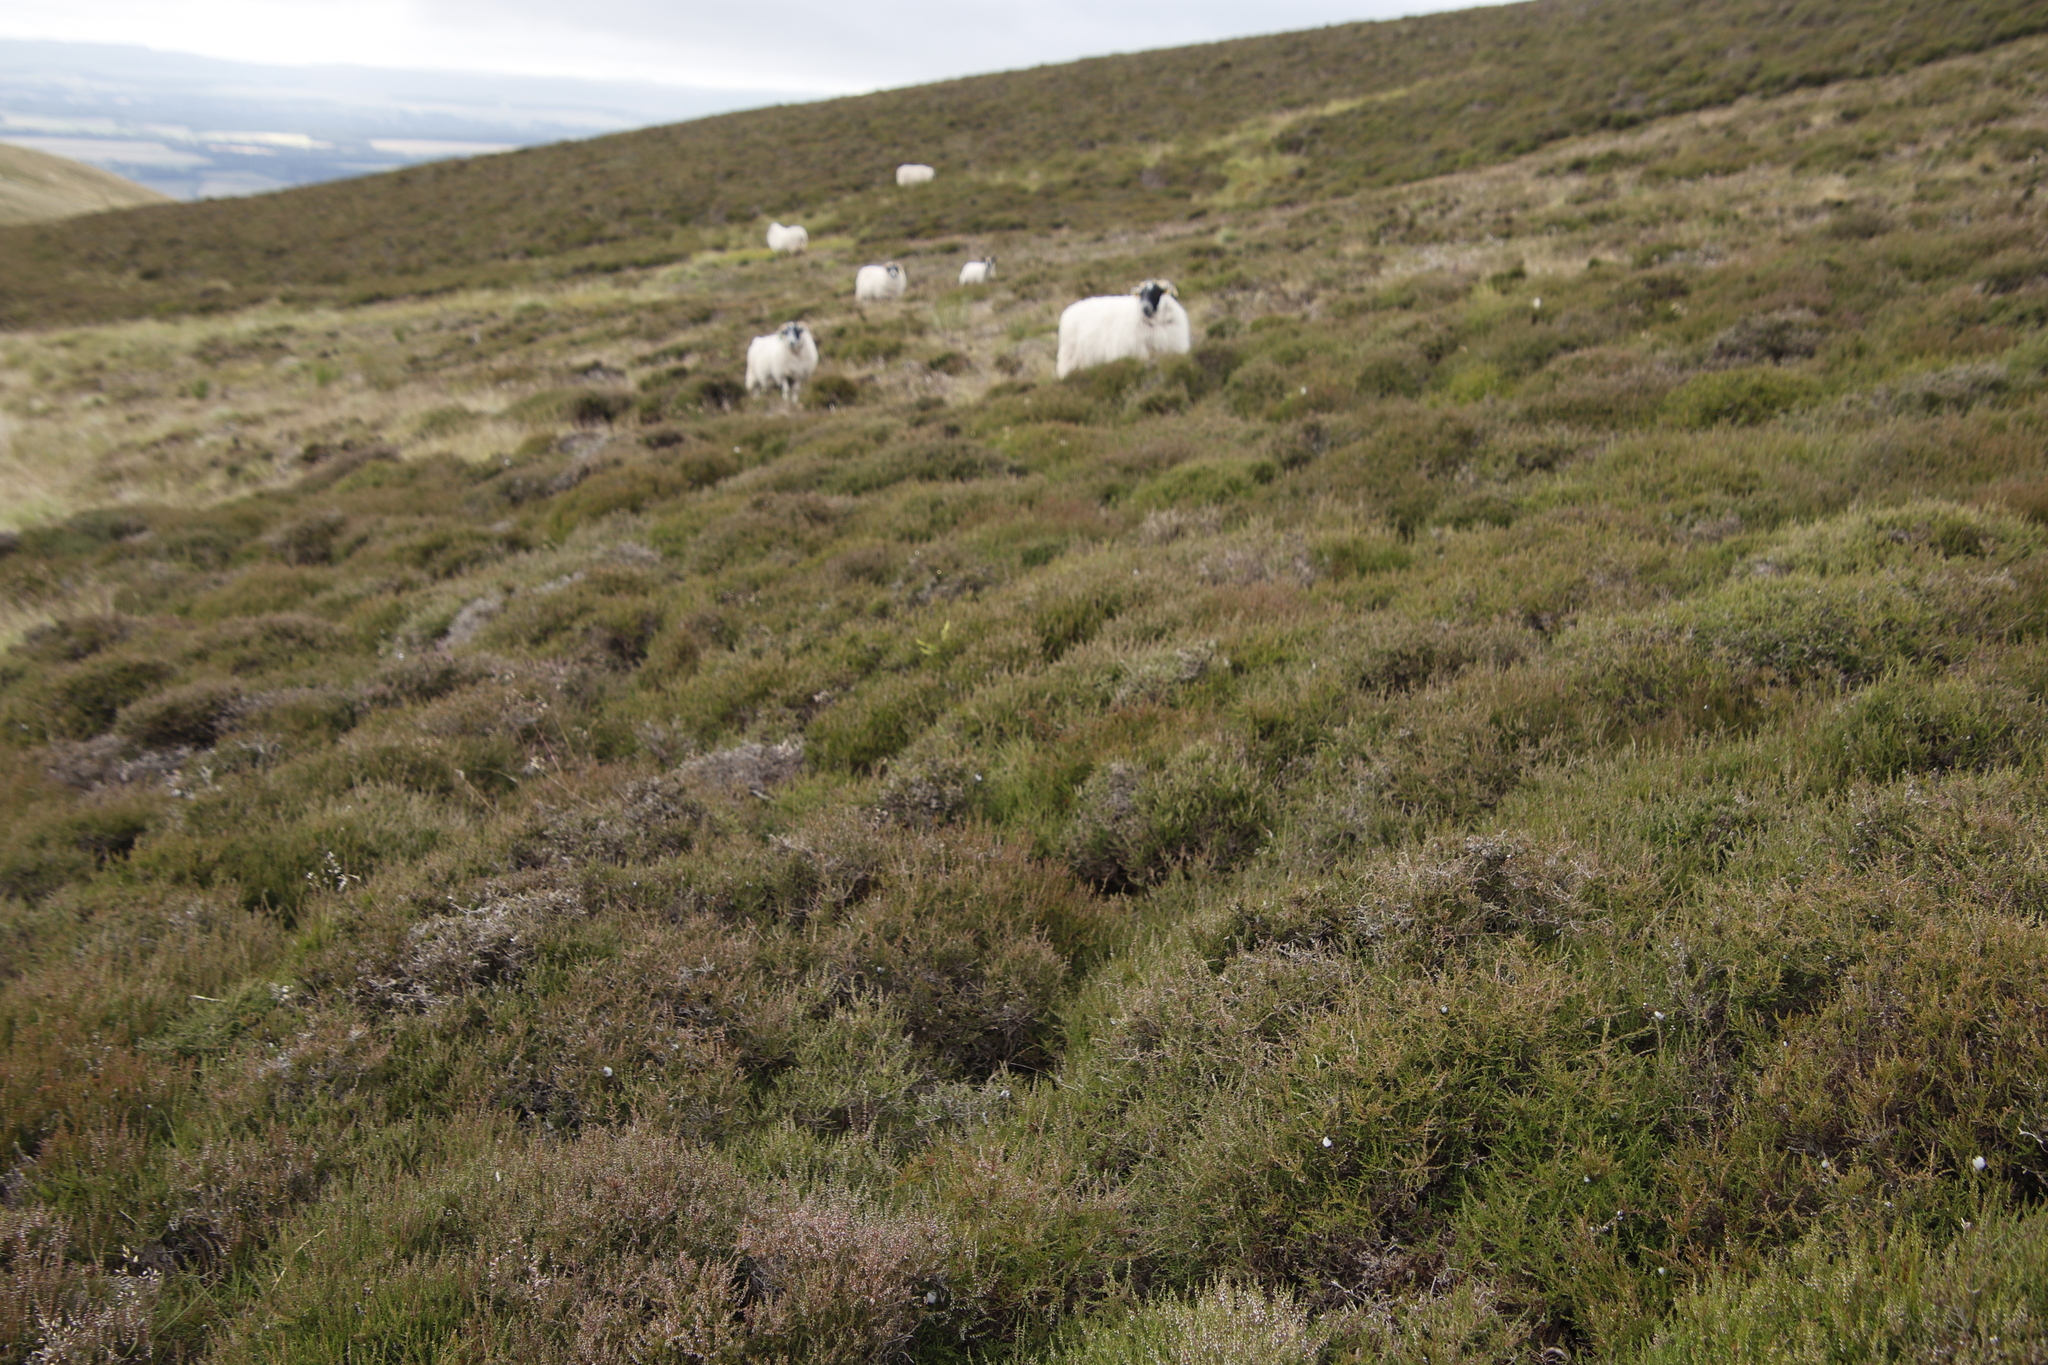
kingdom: Plantae
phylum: Tracheophyta
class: Magnoliopsida
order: Ericales
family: Ericaceae
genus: Calluna
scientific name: Calluna vulgaris
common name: Heather
